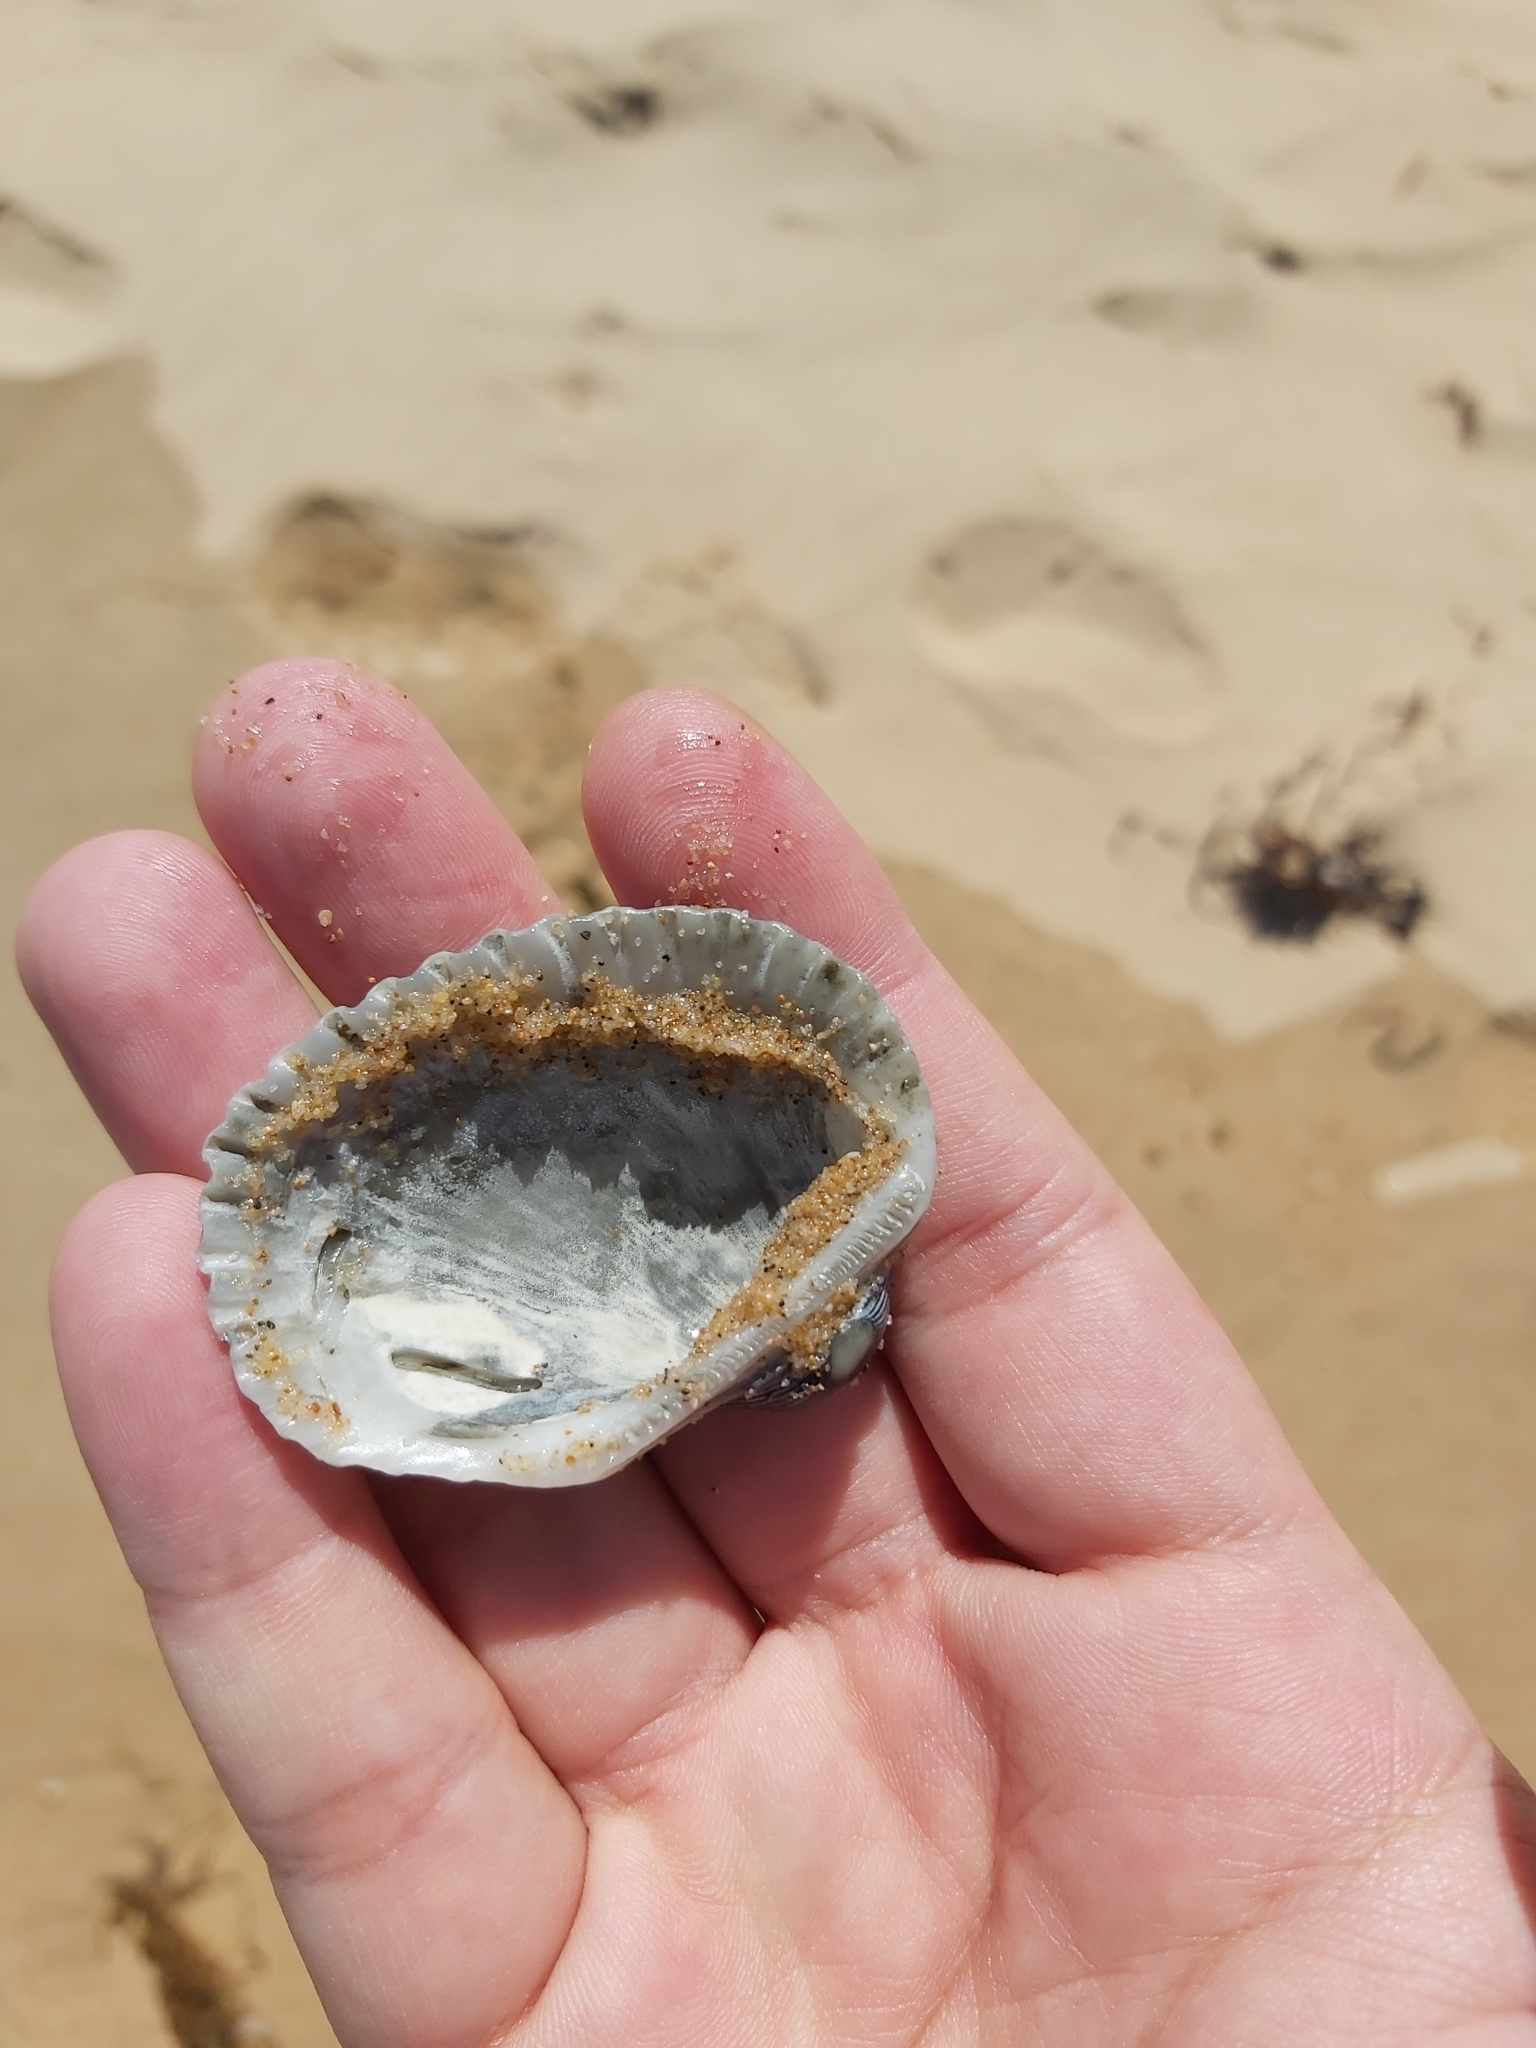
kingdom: Animalia
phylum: Mollusca
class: Bivalvia
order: Arcida
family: Arcidae
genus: Anadara
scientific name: Anadara trapezia
